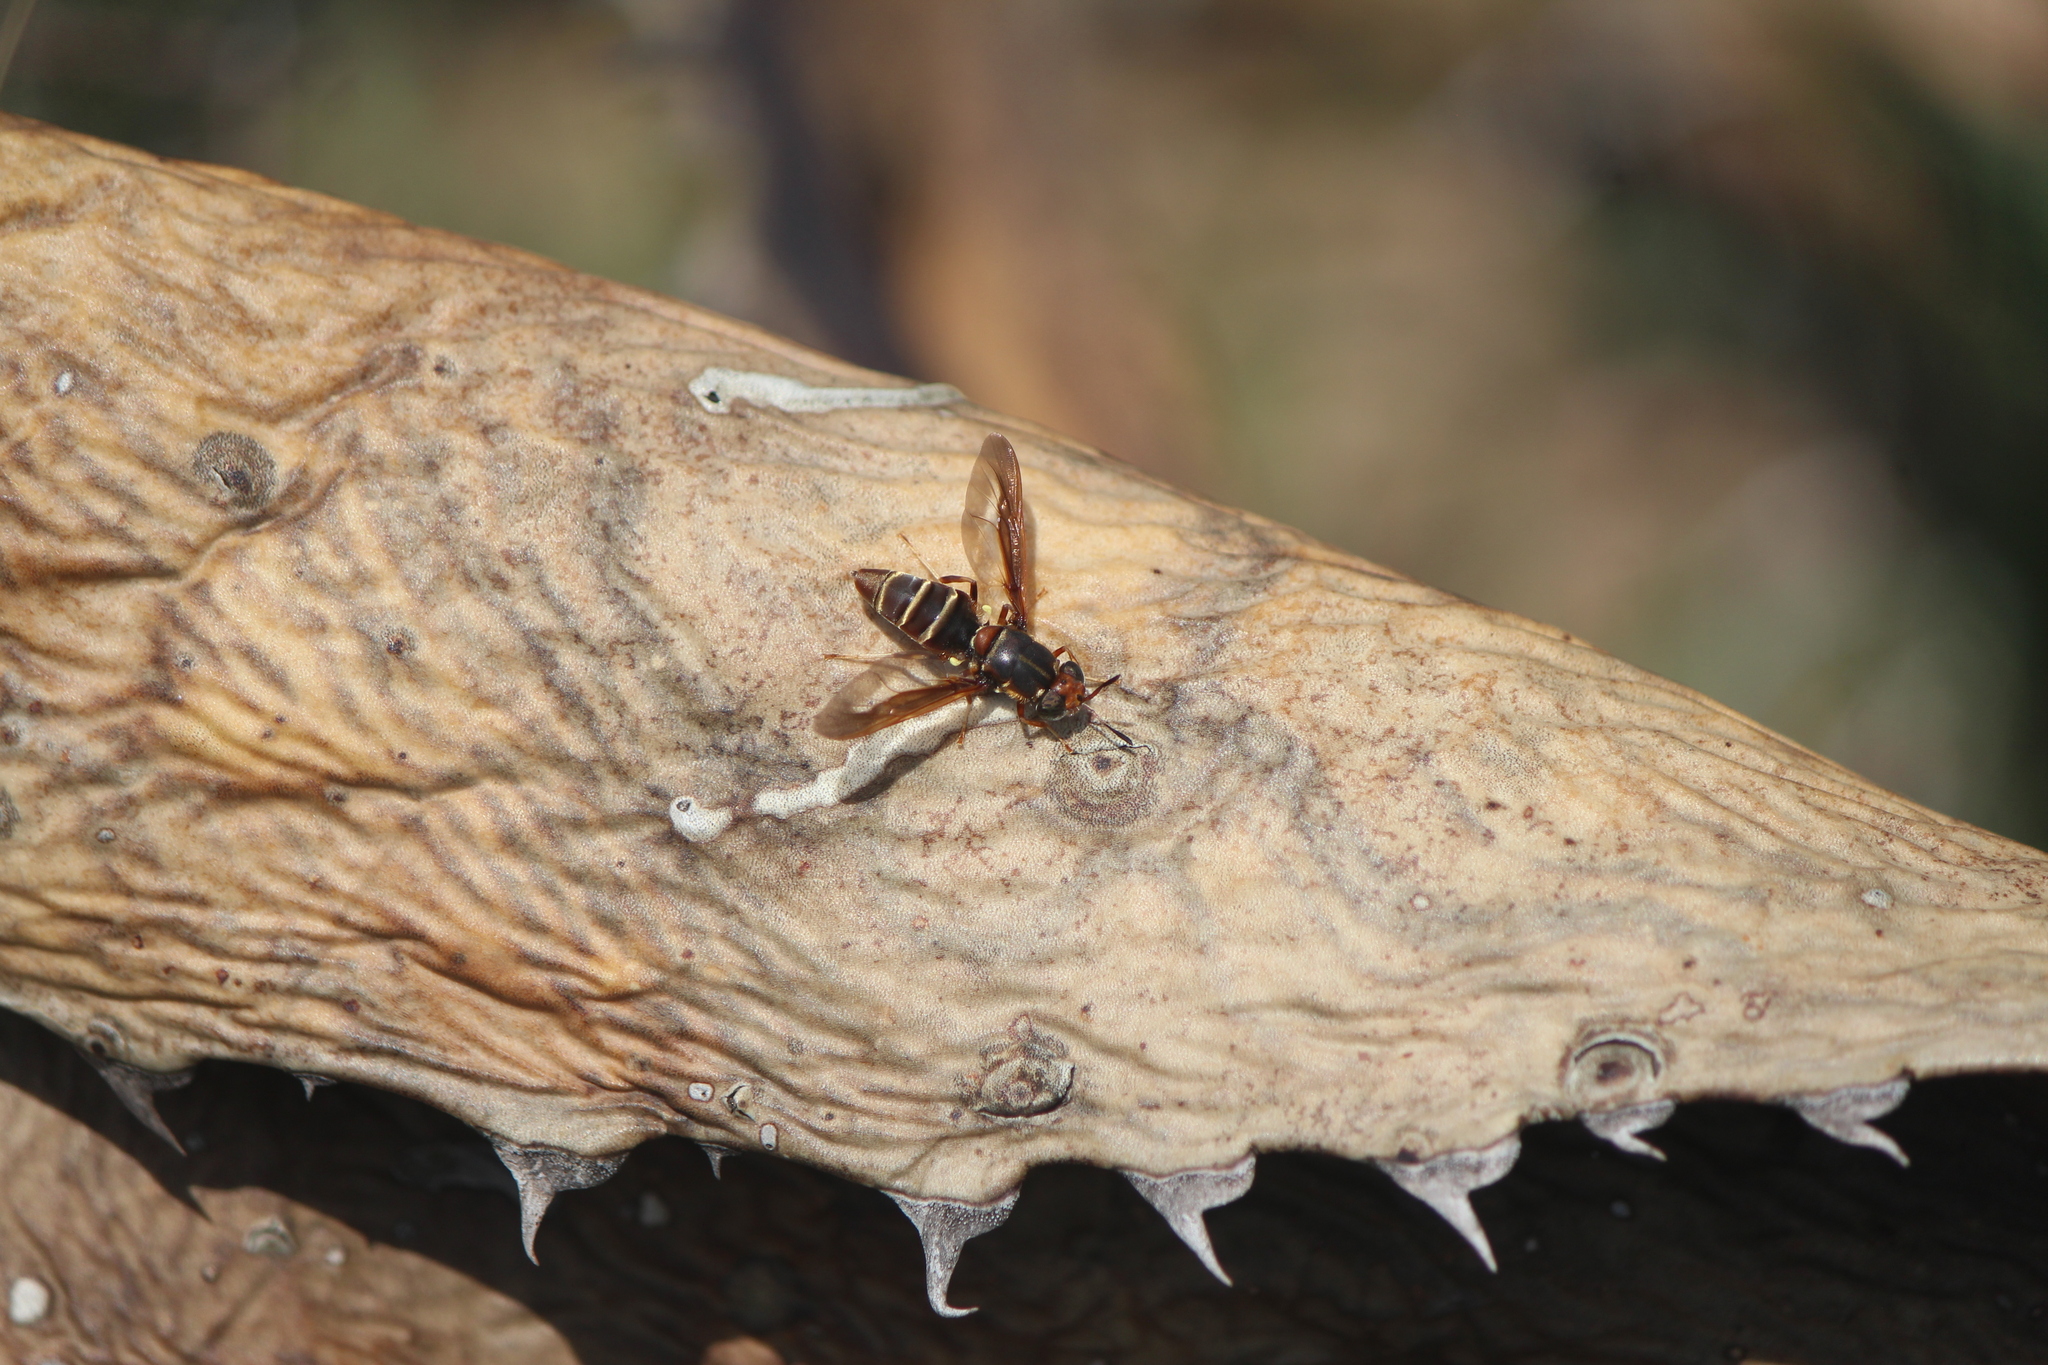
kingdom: Animalia
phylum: Arthropoda
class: Insecta
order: Diptera
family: Stratiomyidae
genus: Hermetia
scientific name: Hermetia comstocki
